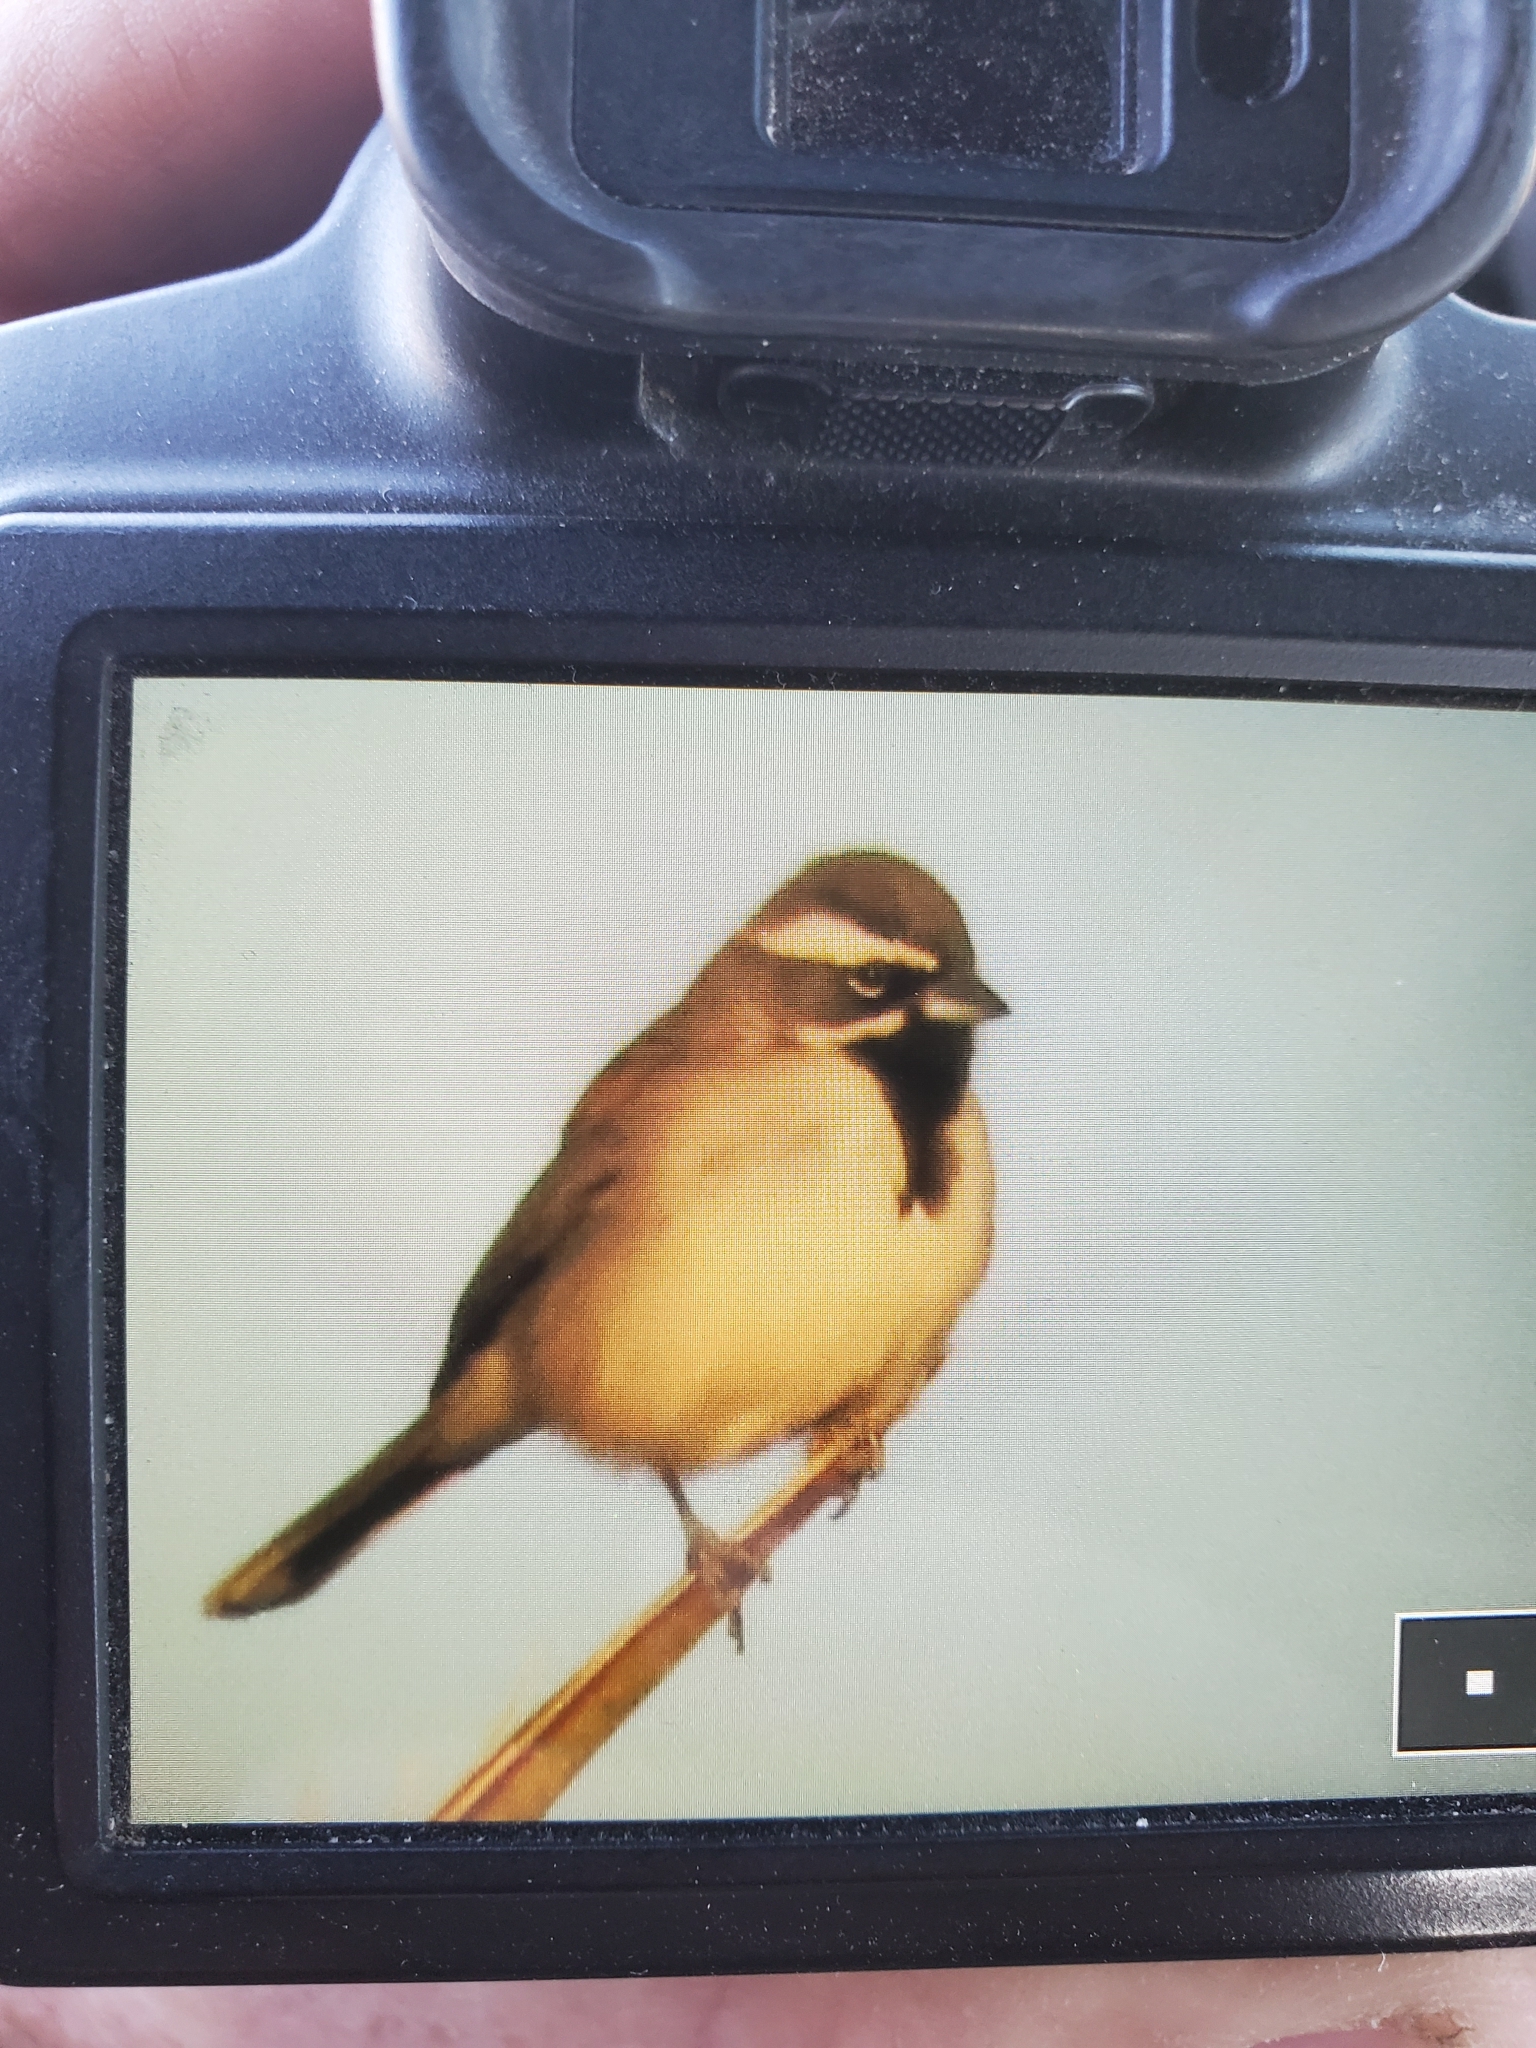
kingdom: Animalia
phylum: Chordata
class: Aves
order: Passeriformes
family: Passerellidae
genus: Amphispiza
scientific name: Amphispiza bilineata
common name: Black-throated sparrow
